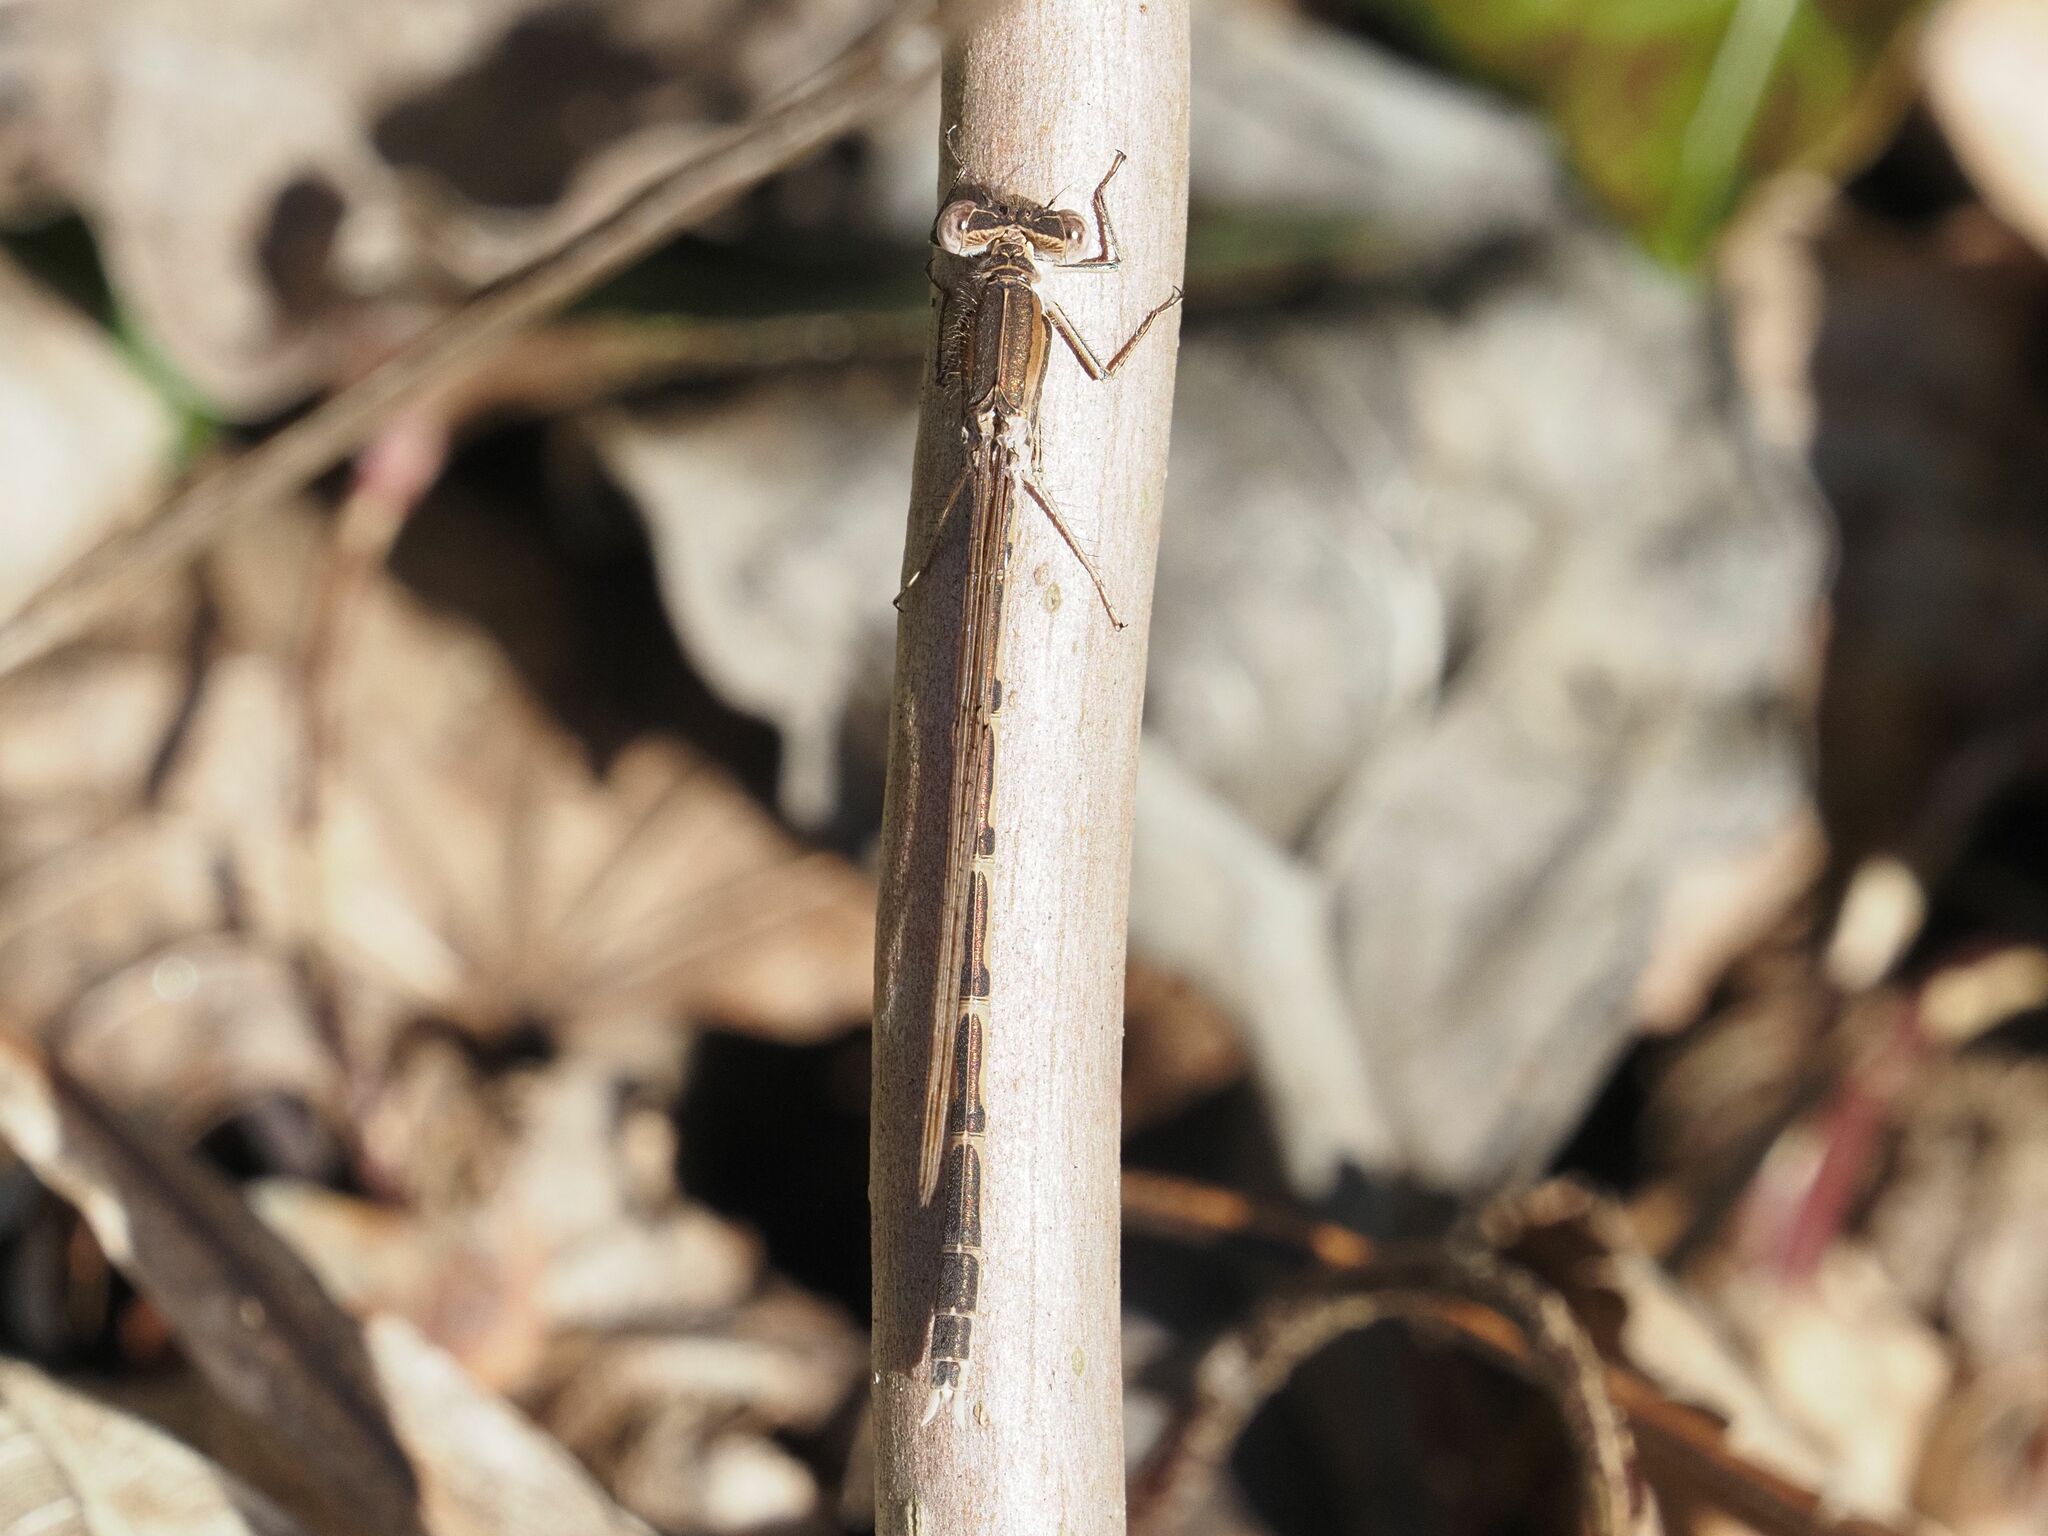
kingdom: Animalia
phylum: Arthropoda
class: Insecta
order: Odonata
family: Lestidae
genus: Sympecma
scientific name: Sympecma fusca
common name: Common winter damsel
